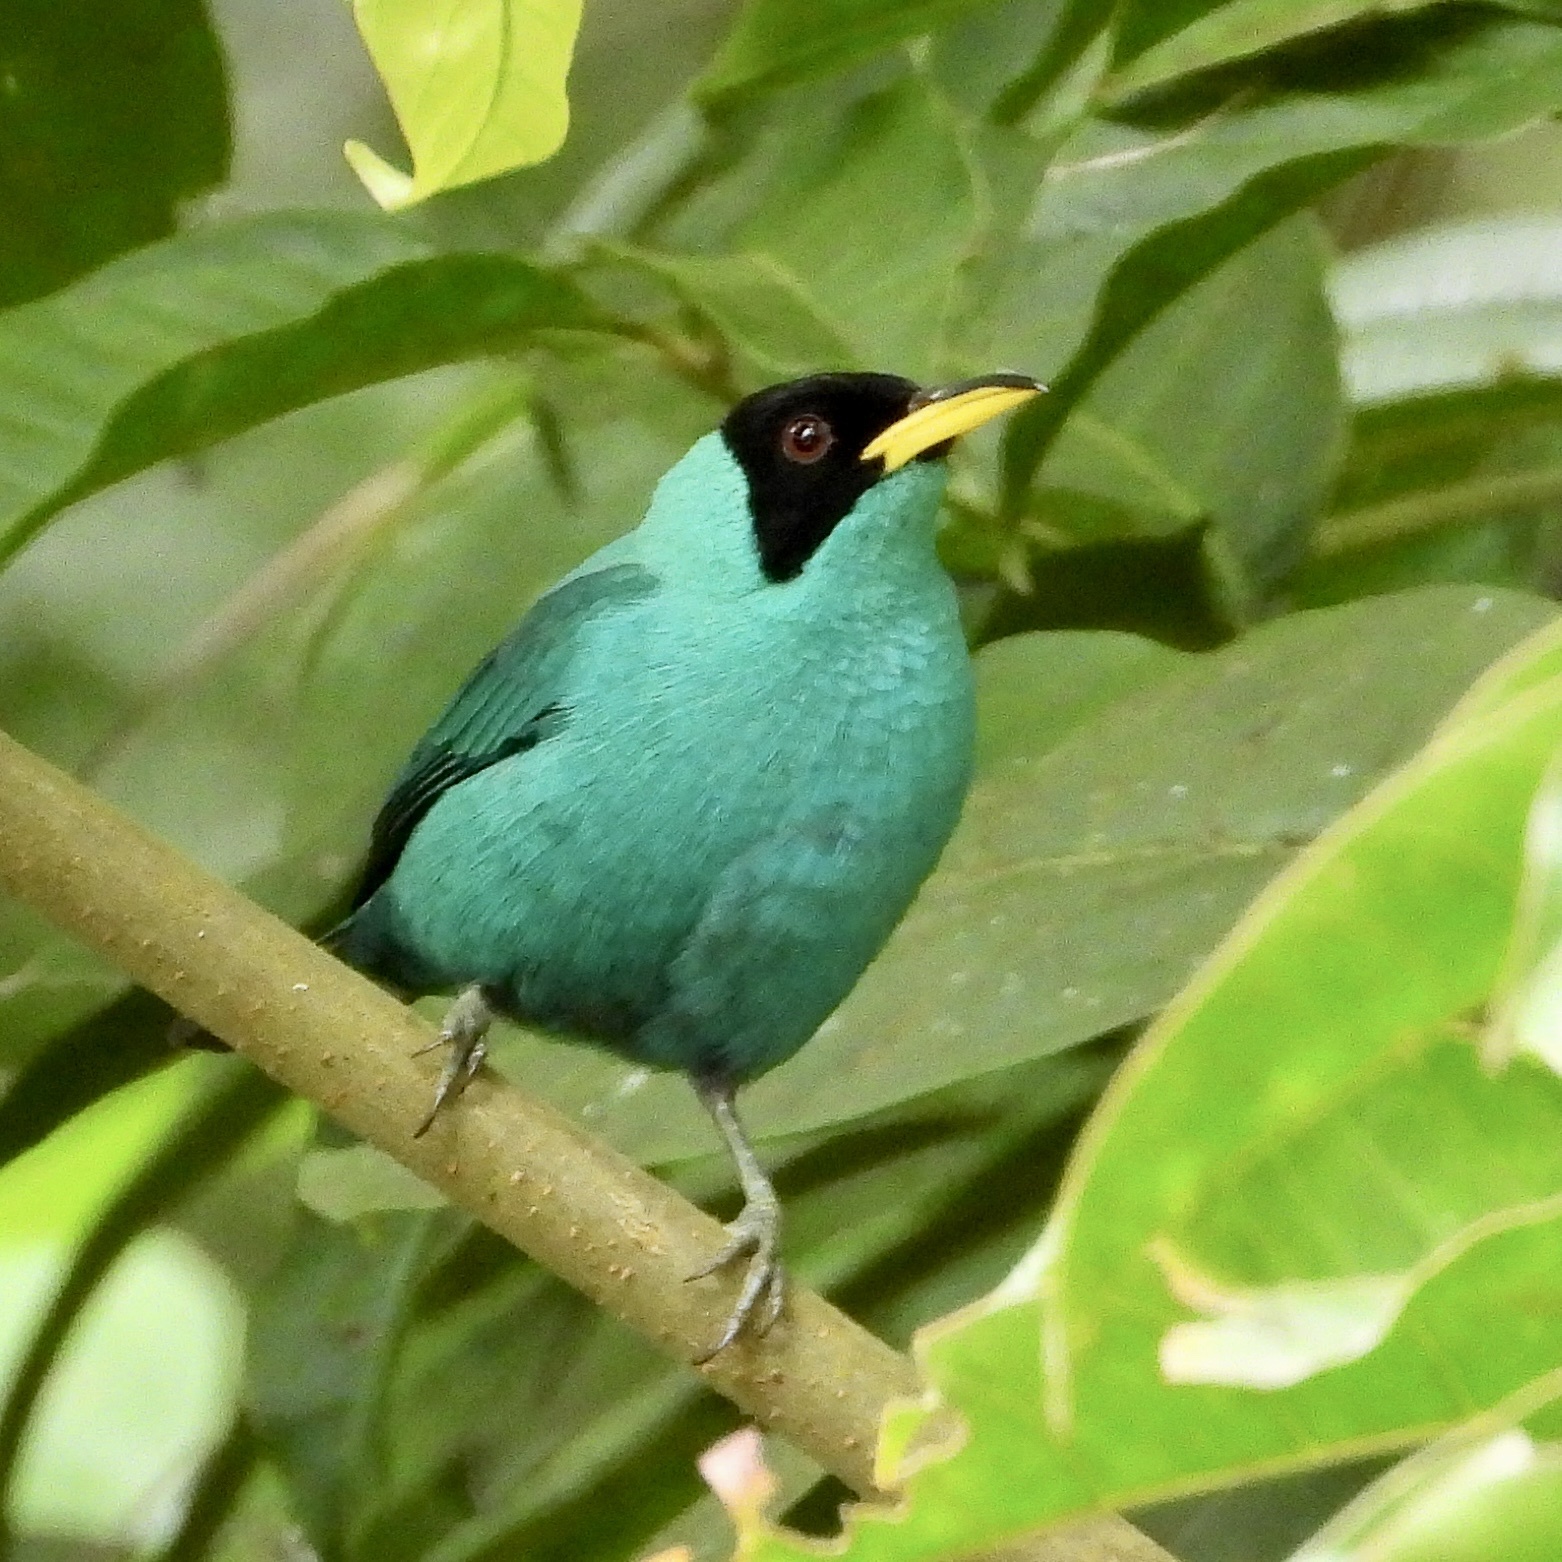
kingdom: Animalia
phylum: Chordata
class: Aves
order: Passeriformes
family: Thraupidae
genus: Chlorophanes
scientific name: Chlorophanes spiza
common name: Green honeycreeper
